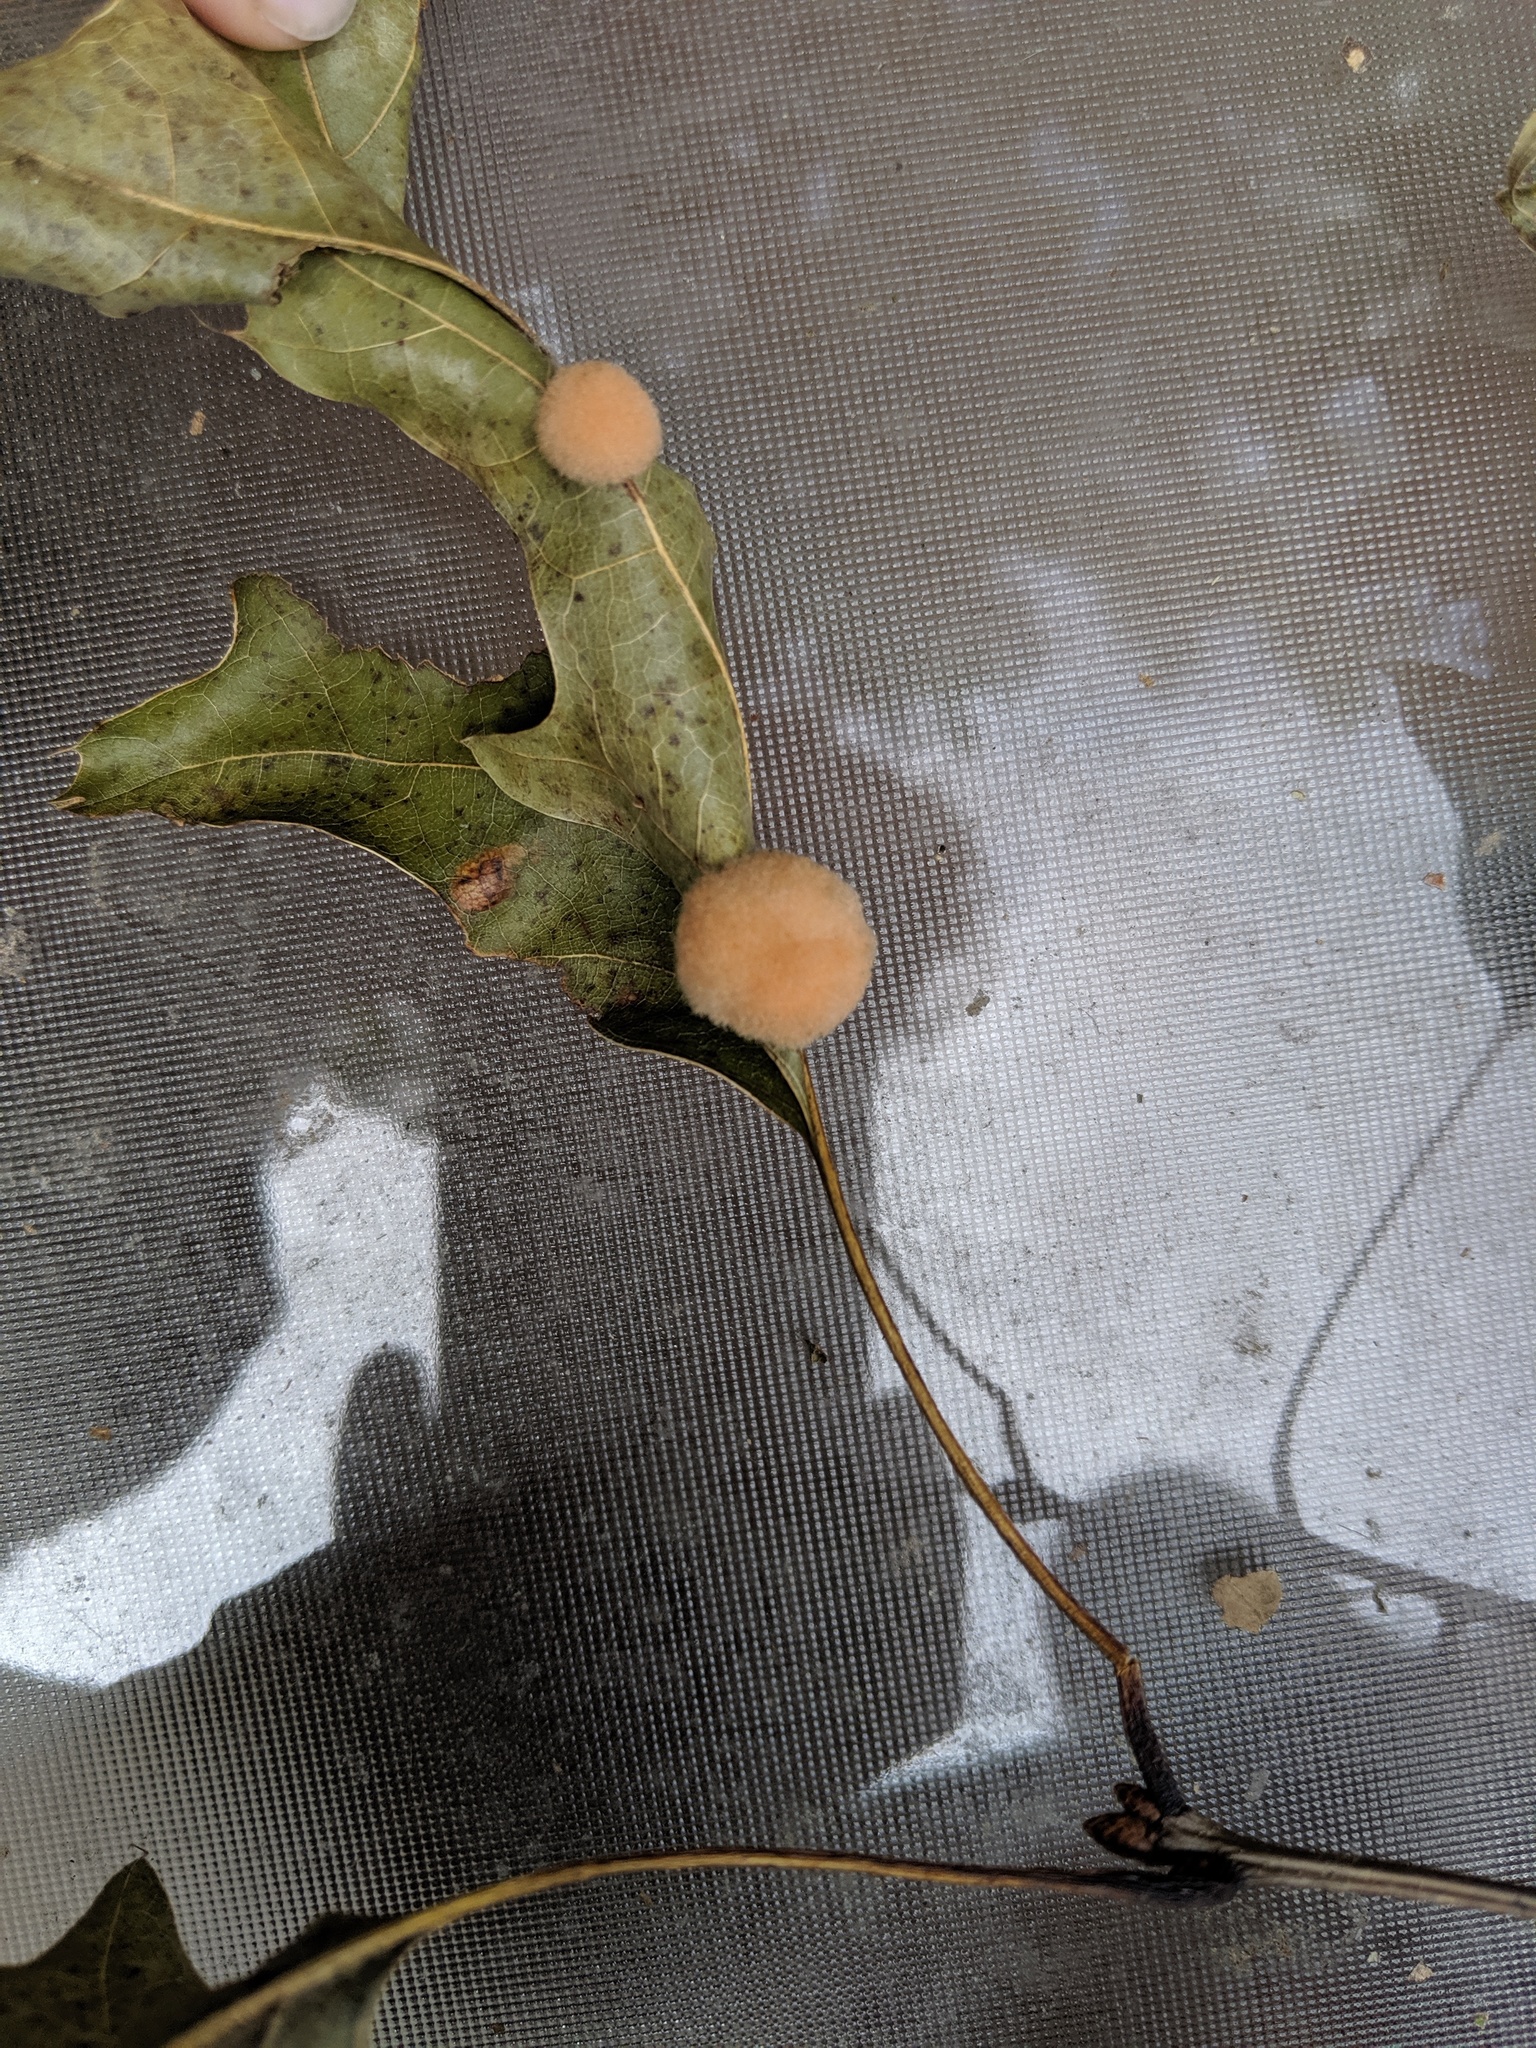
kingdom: Animalia
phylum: Arthropoda
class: Insecta
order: Hymenoptera
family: Cynipidae
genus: Callirhytis
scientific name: Callirhytis
